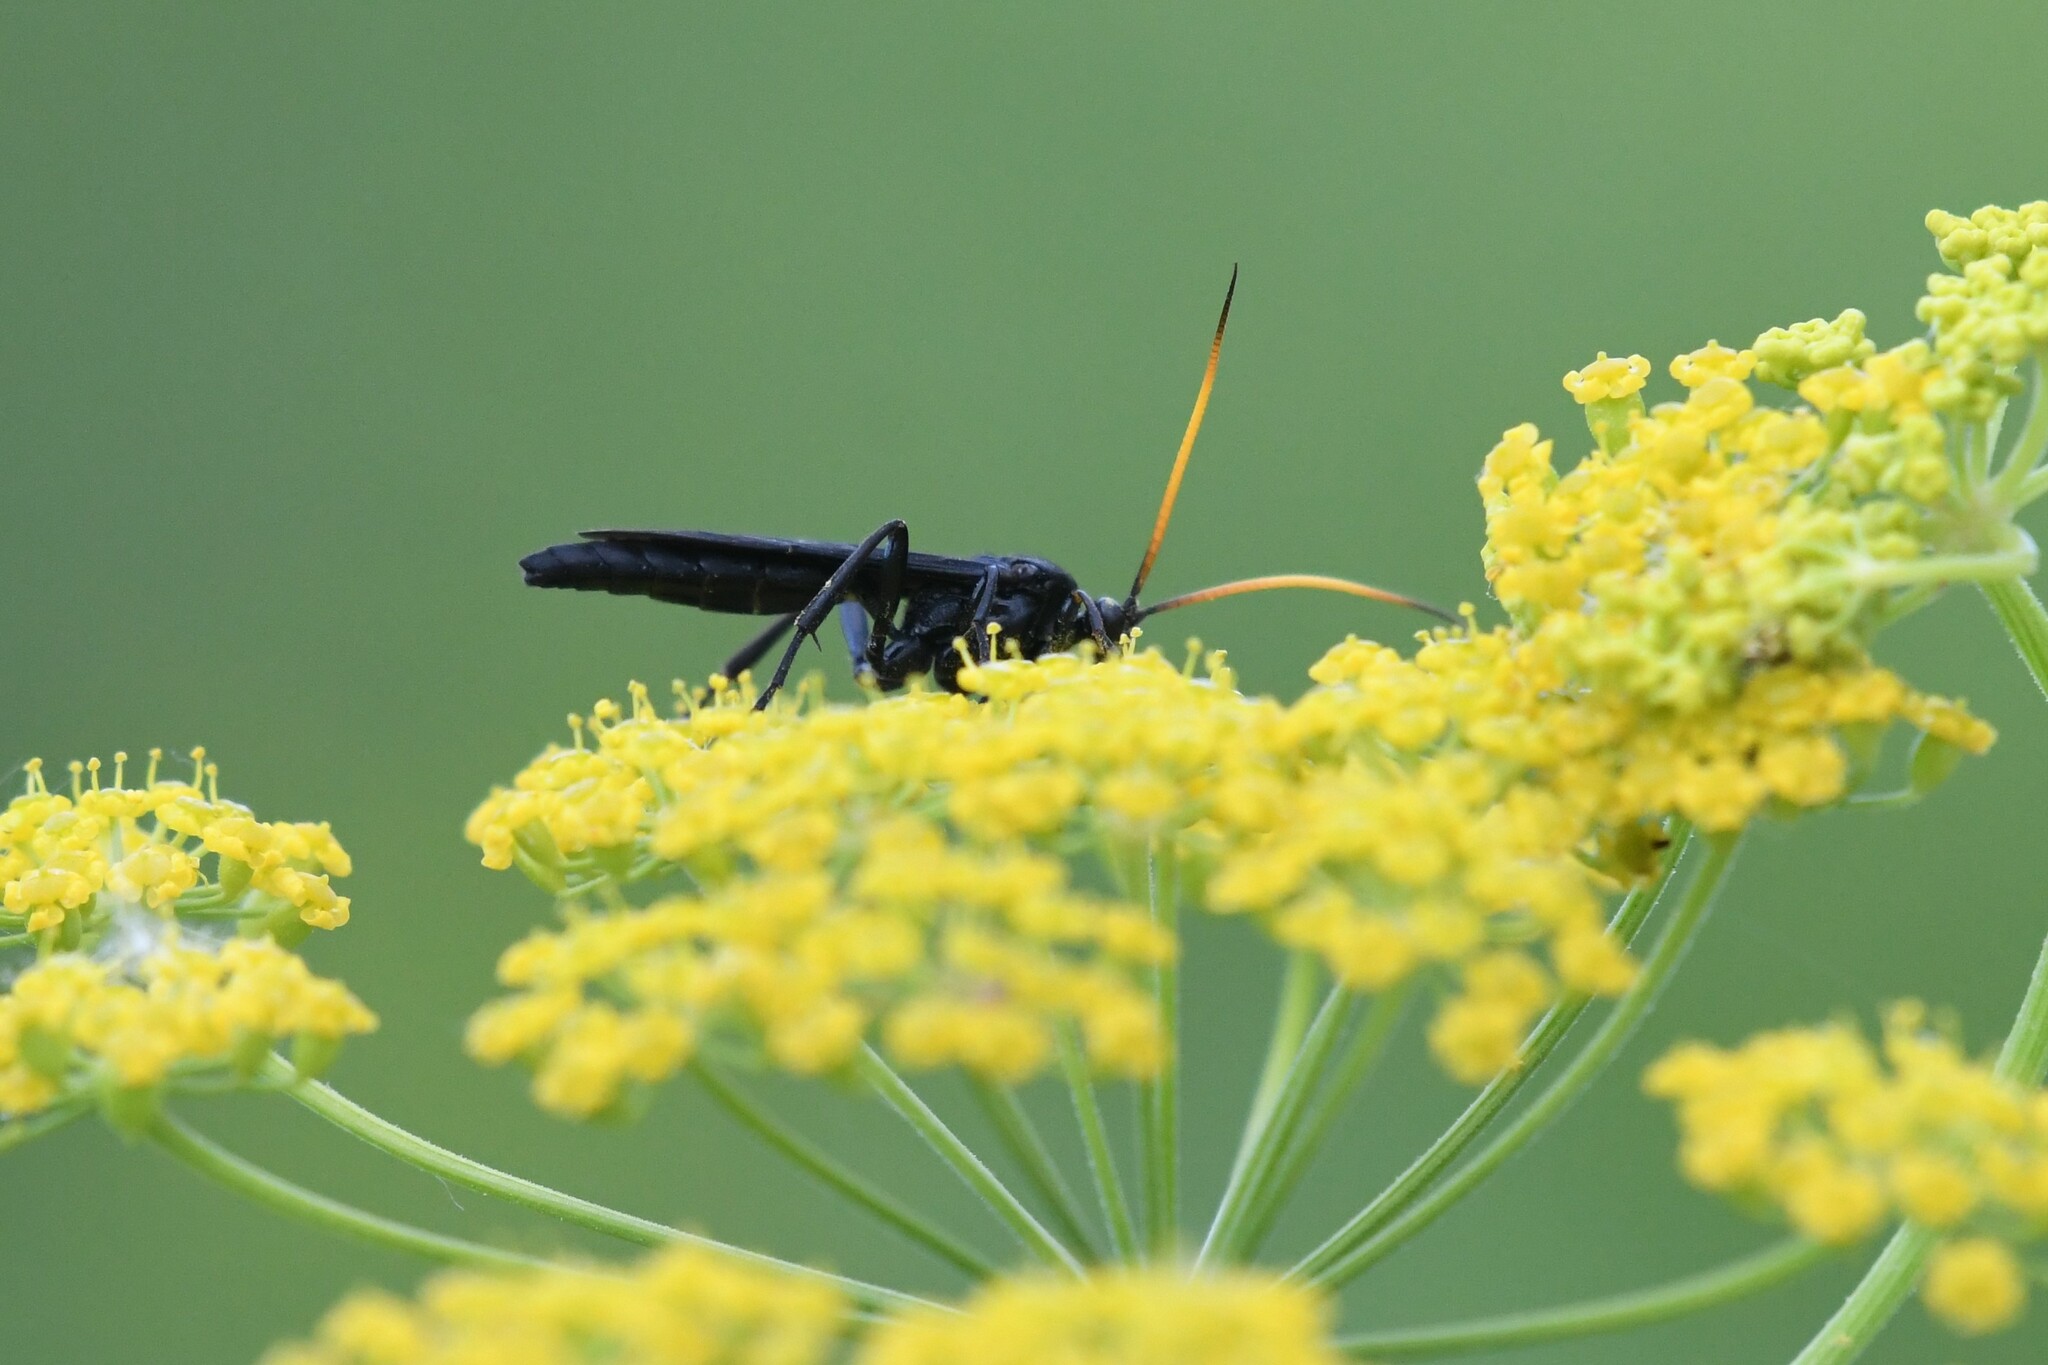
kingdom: Animalia
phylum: Arthropoda
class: Insecta
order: Hymenoptera
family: Ichneumonidae
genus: Ichneumon
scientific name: Ichneumon centrator
